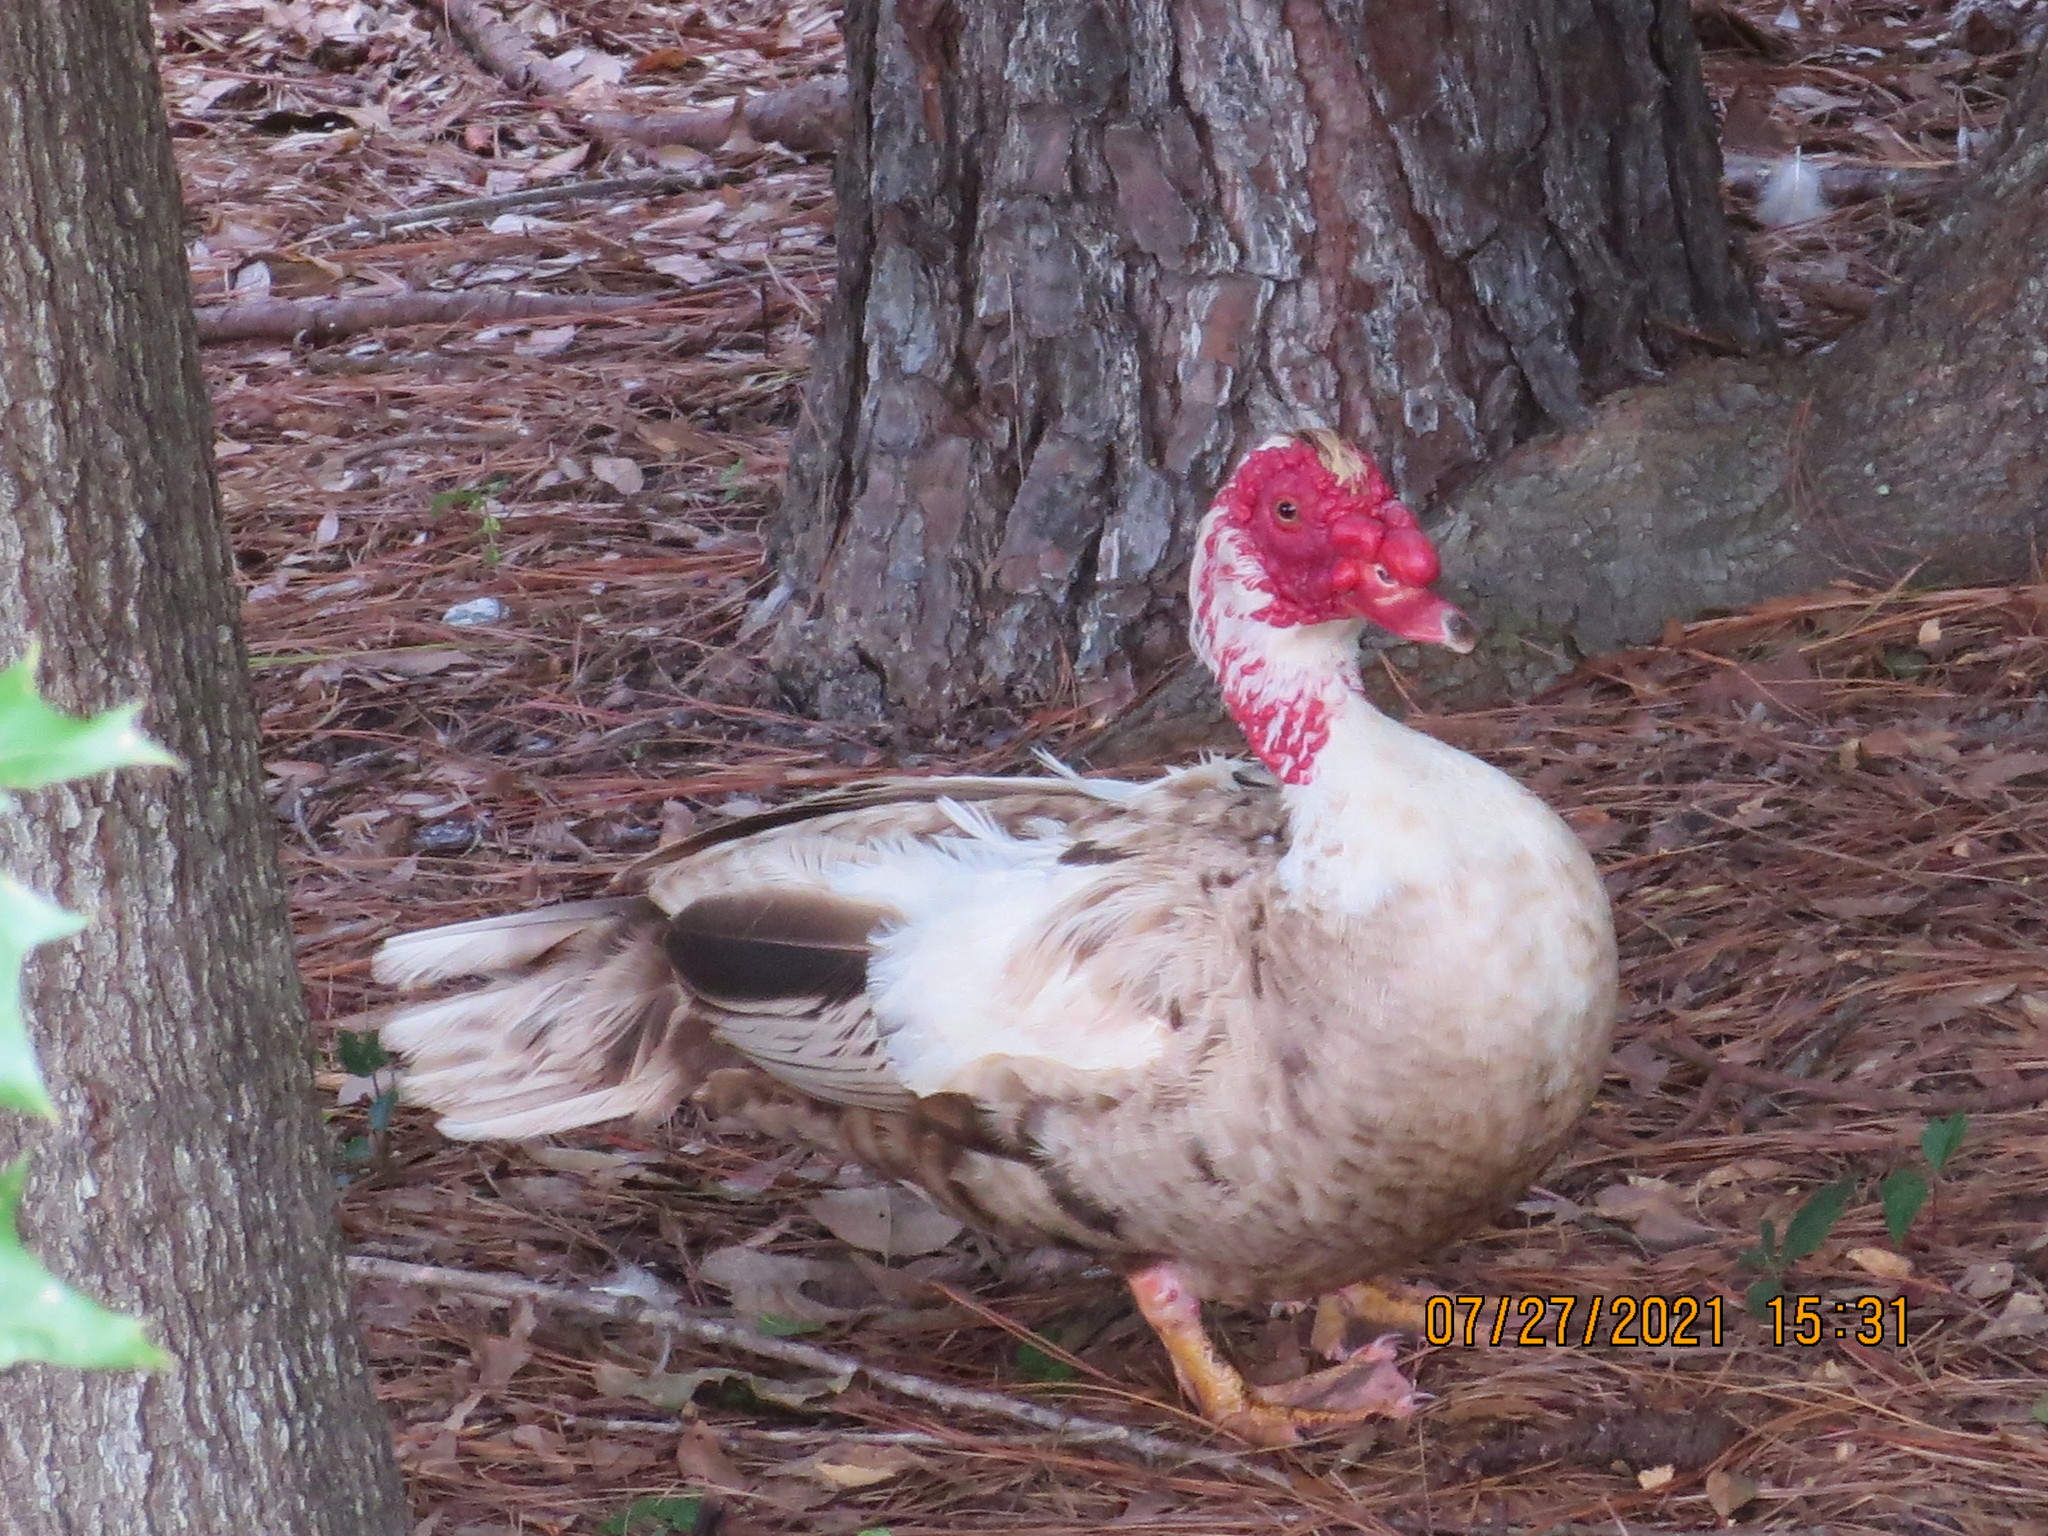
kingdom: Animalia
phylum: Chordata
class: Aves
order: Anseriformes
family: Anatidae
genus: Cairina
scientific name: Cairina moschata
